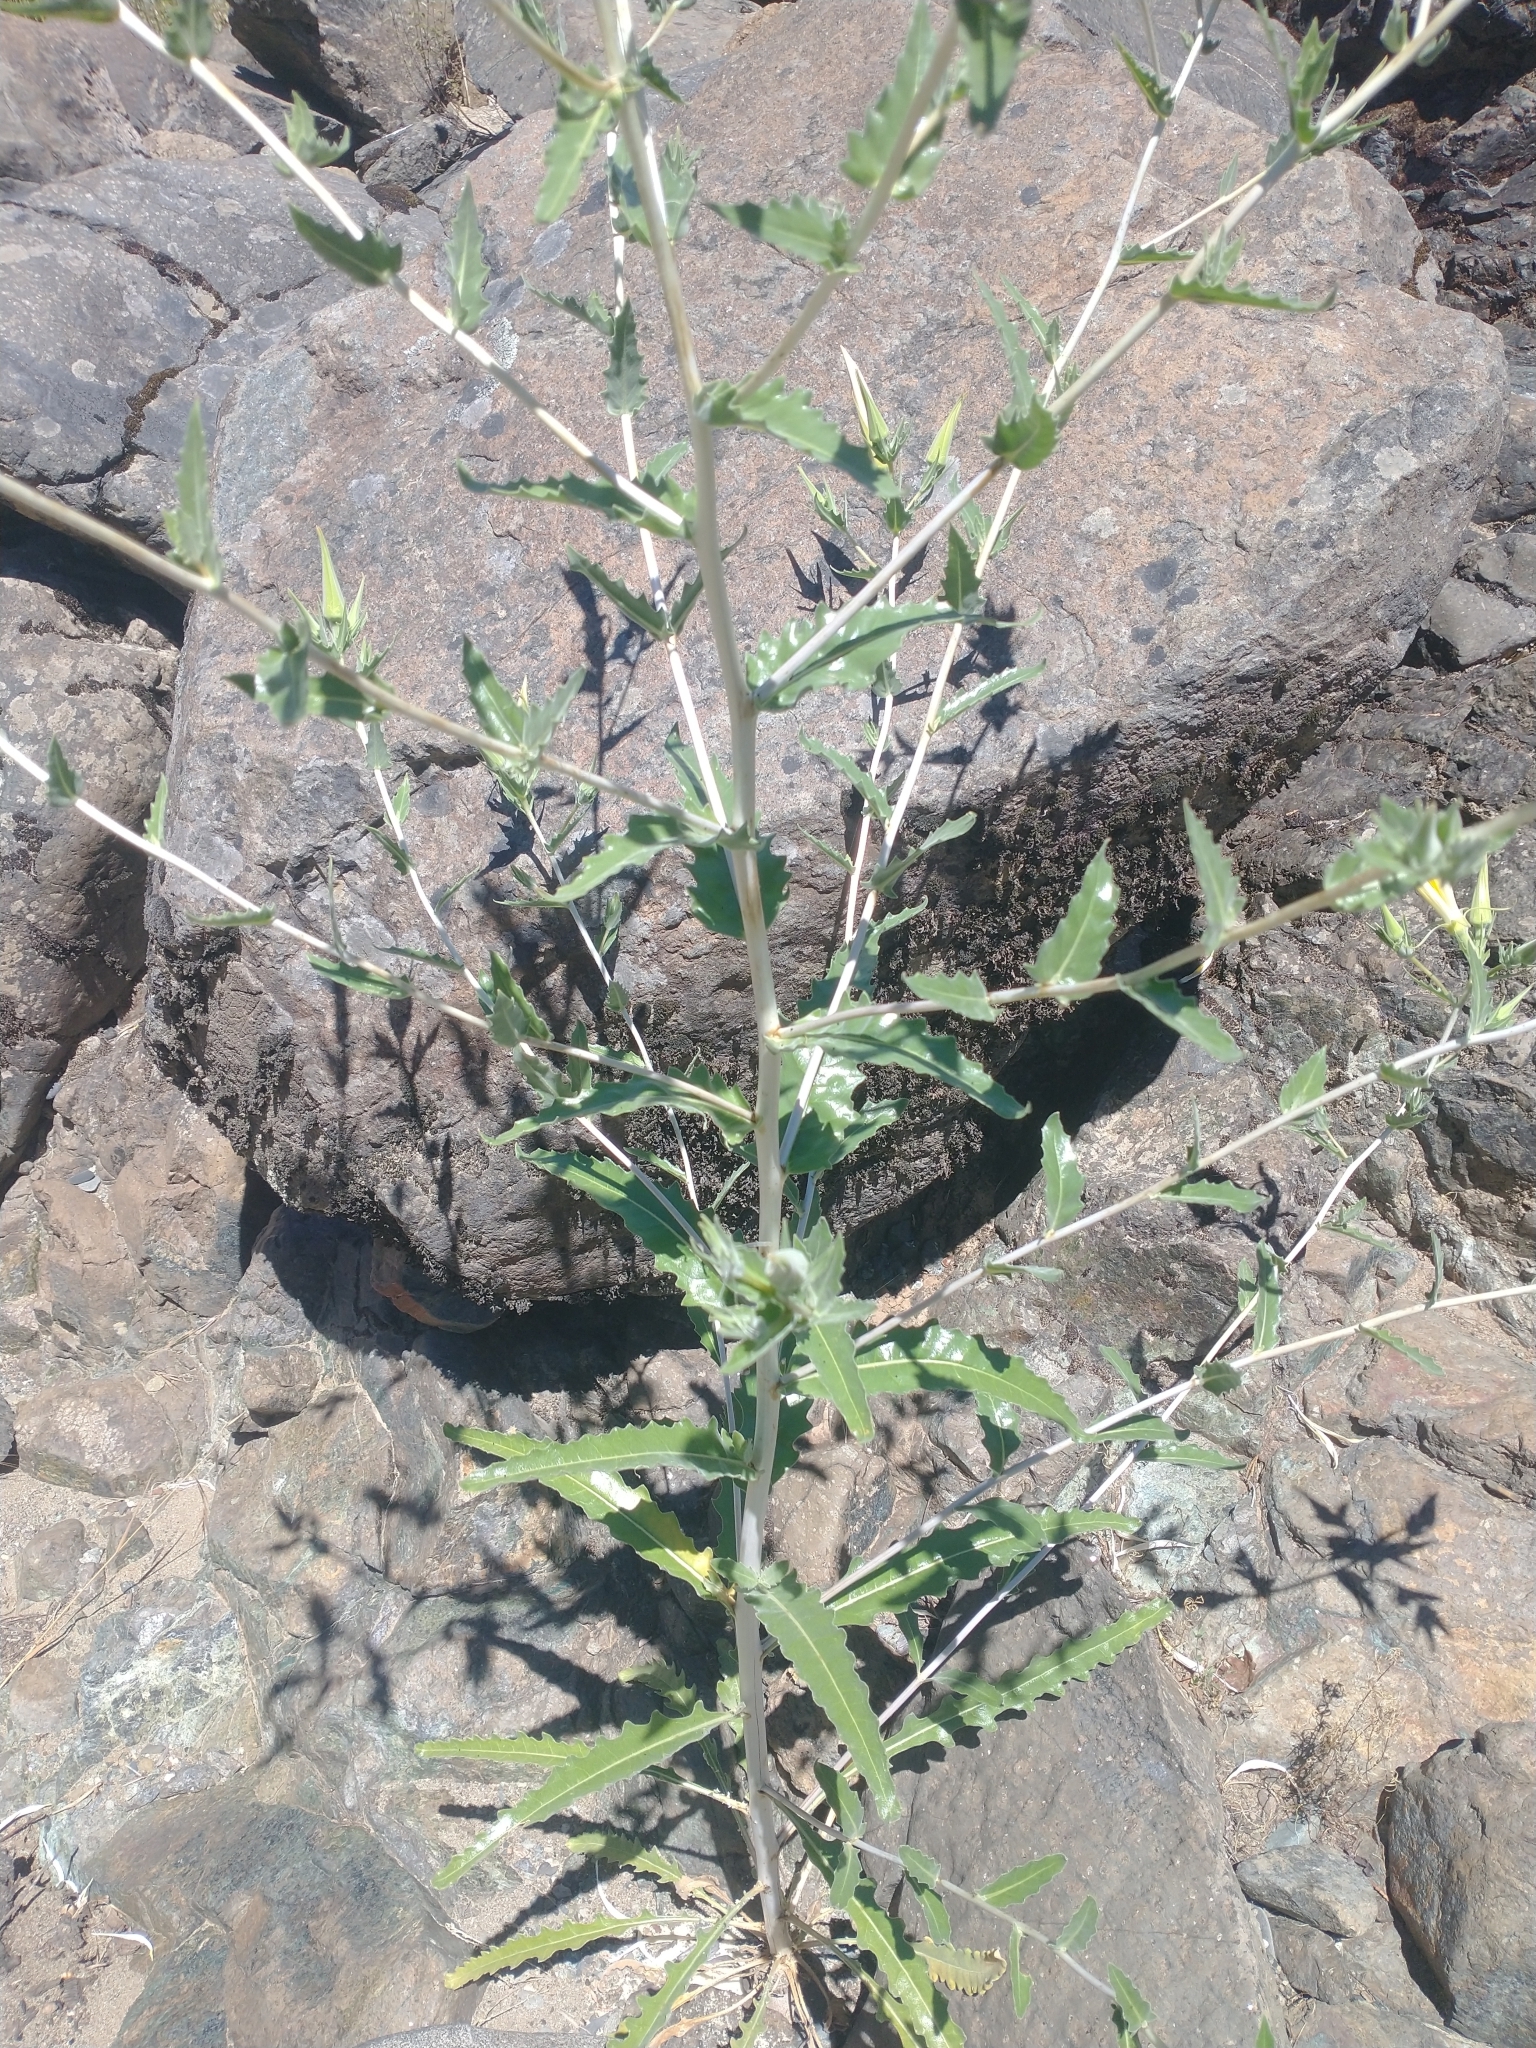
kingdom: Plantae
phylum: Tracheophyta
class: Magnoliopsida
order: Cornales
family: Loasaceae
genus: Mentzelia
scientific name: Mentzelia laevicaulis
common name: Smooth-stem blazingstar
